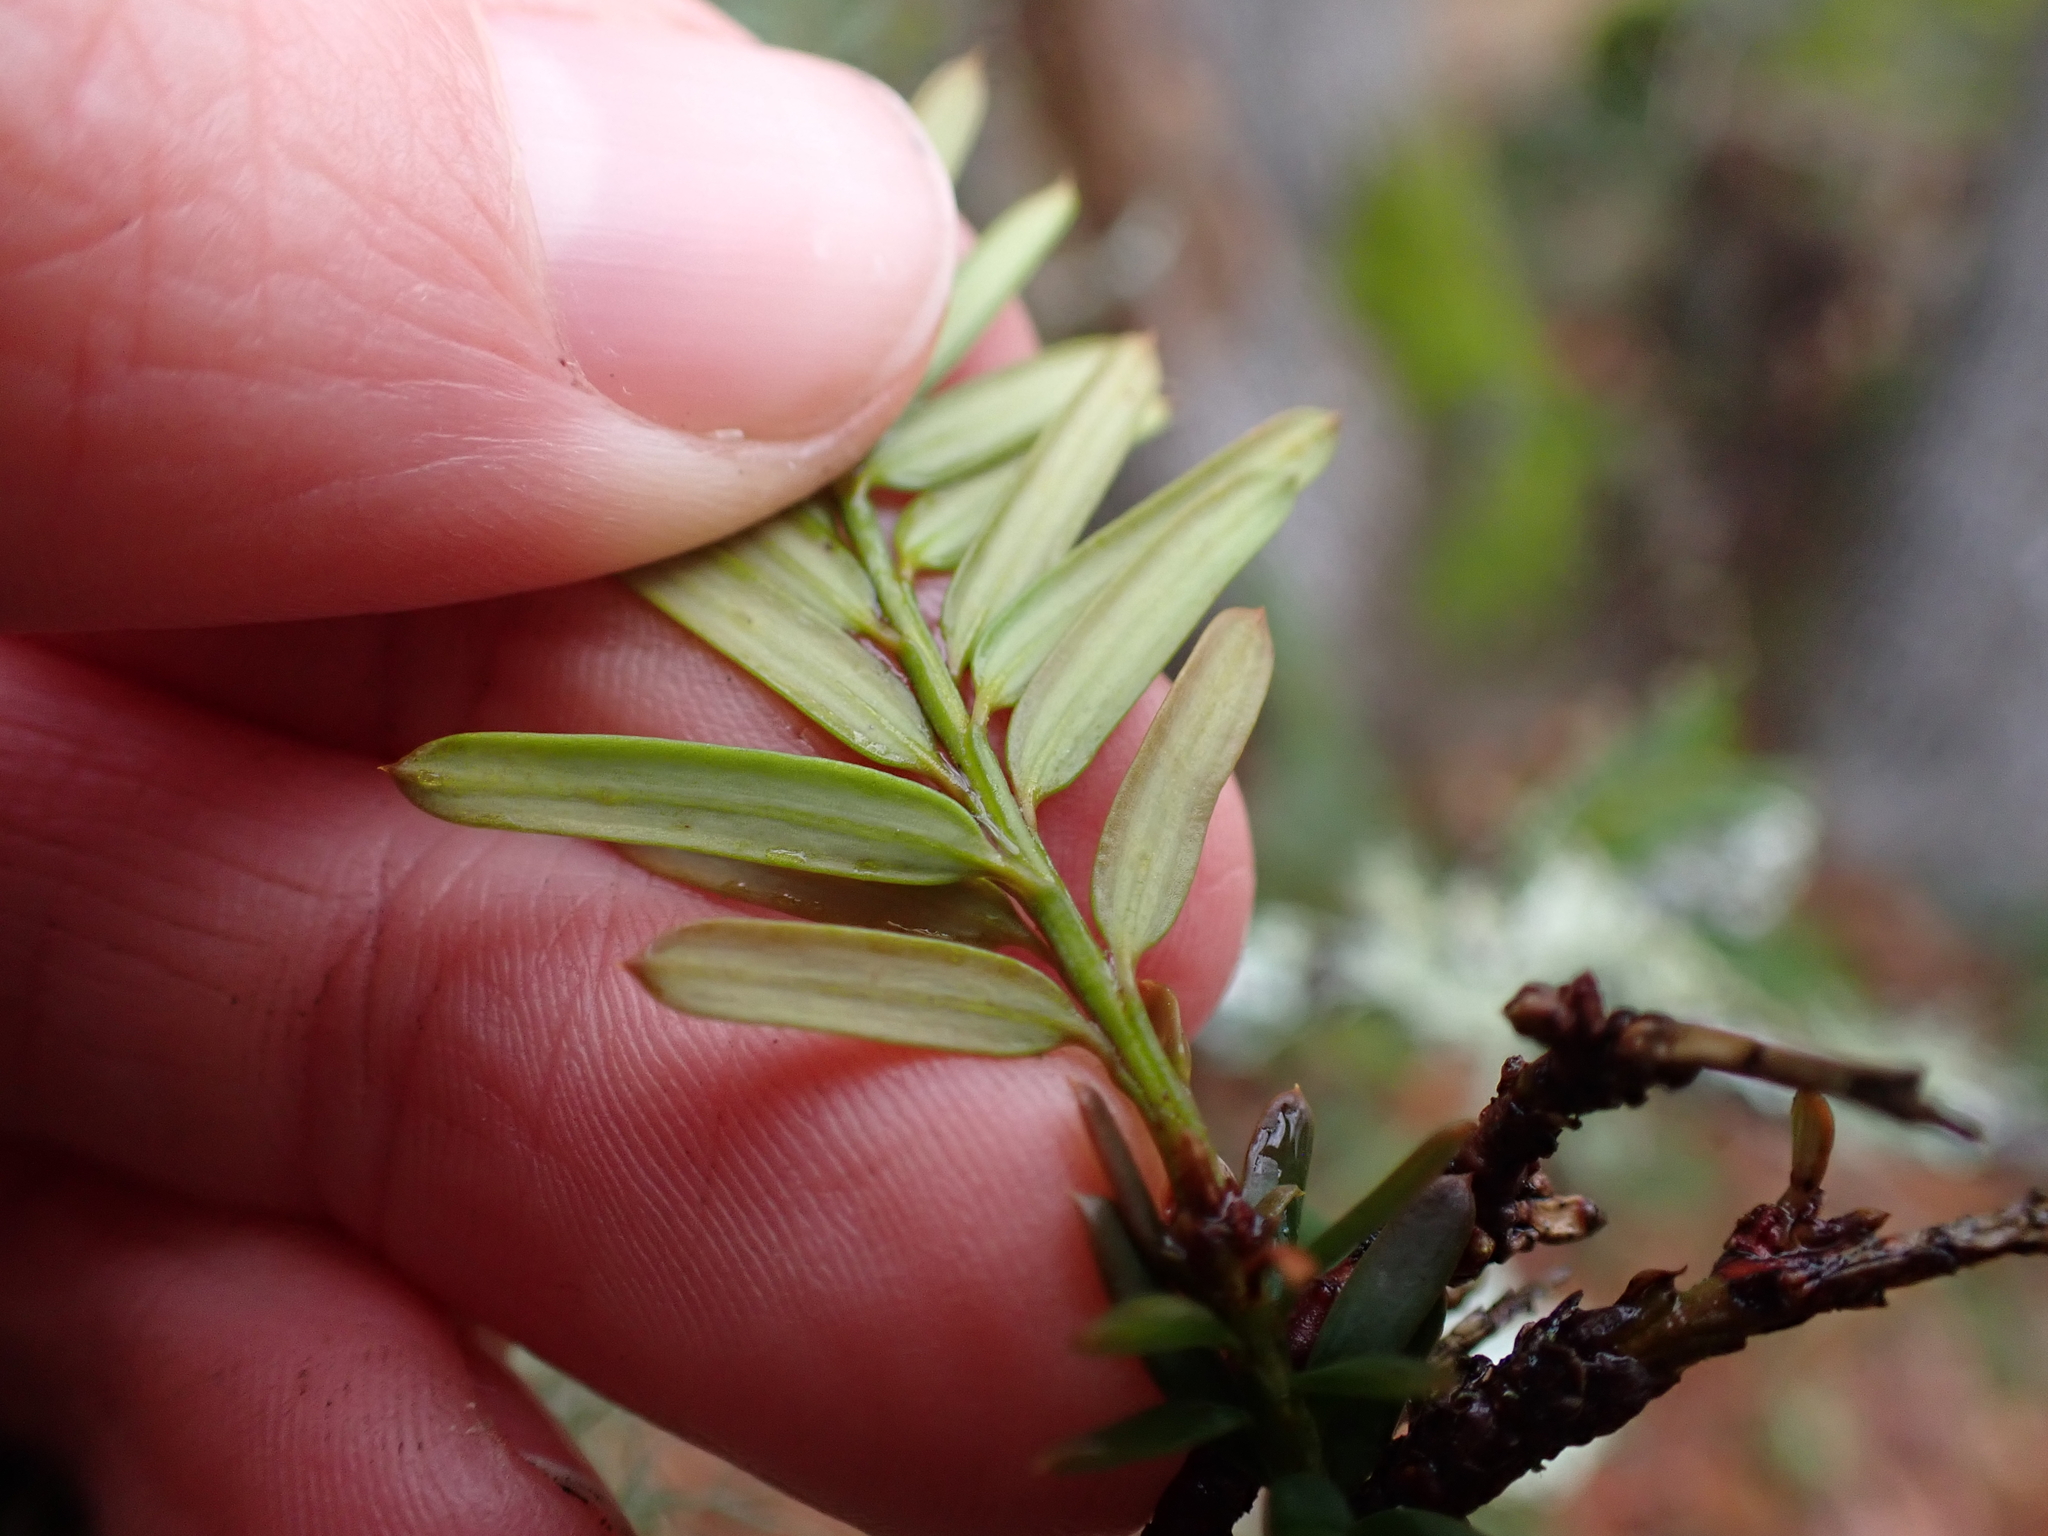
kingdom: Plantae
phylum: Tracheophyta
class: Pinopsida
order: Pinales
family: Taxaceae
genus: Taxus
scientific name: Taxus brevifolia
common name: Pacific yew
